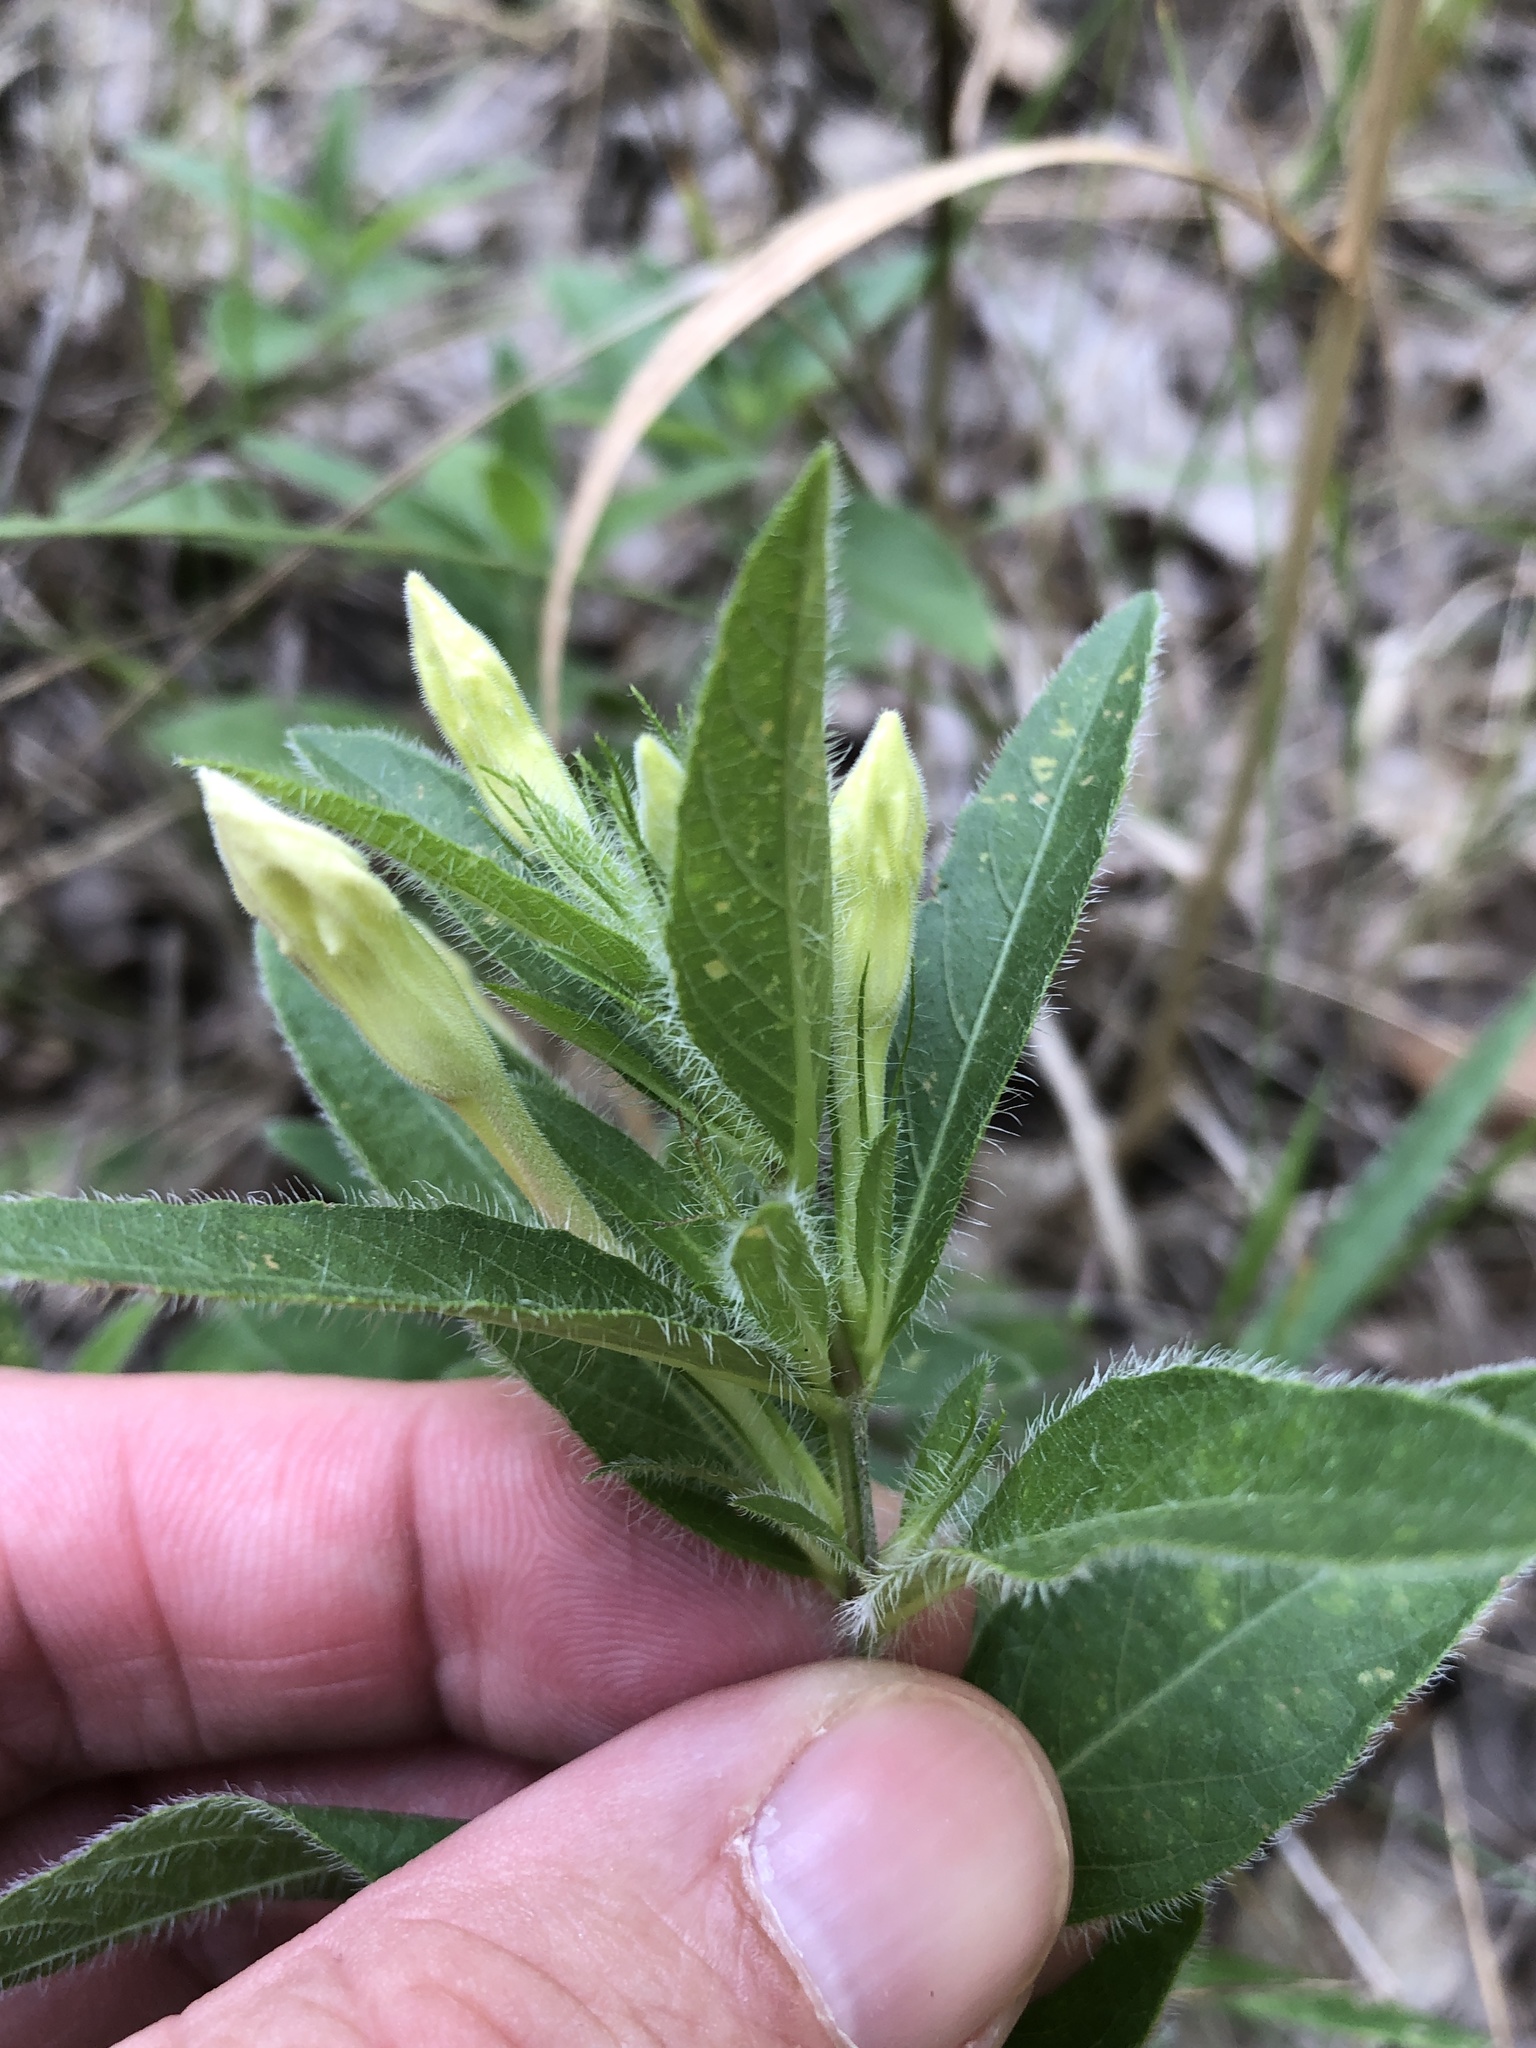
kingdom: Plantae
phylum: Tracheophyta
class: Magnoliopsida
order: Lamiales
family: Acanthaceae
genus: Ruellia
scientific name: Ruellia humilis
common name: Fringe-leaf ruellia
